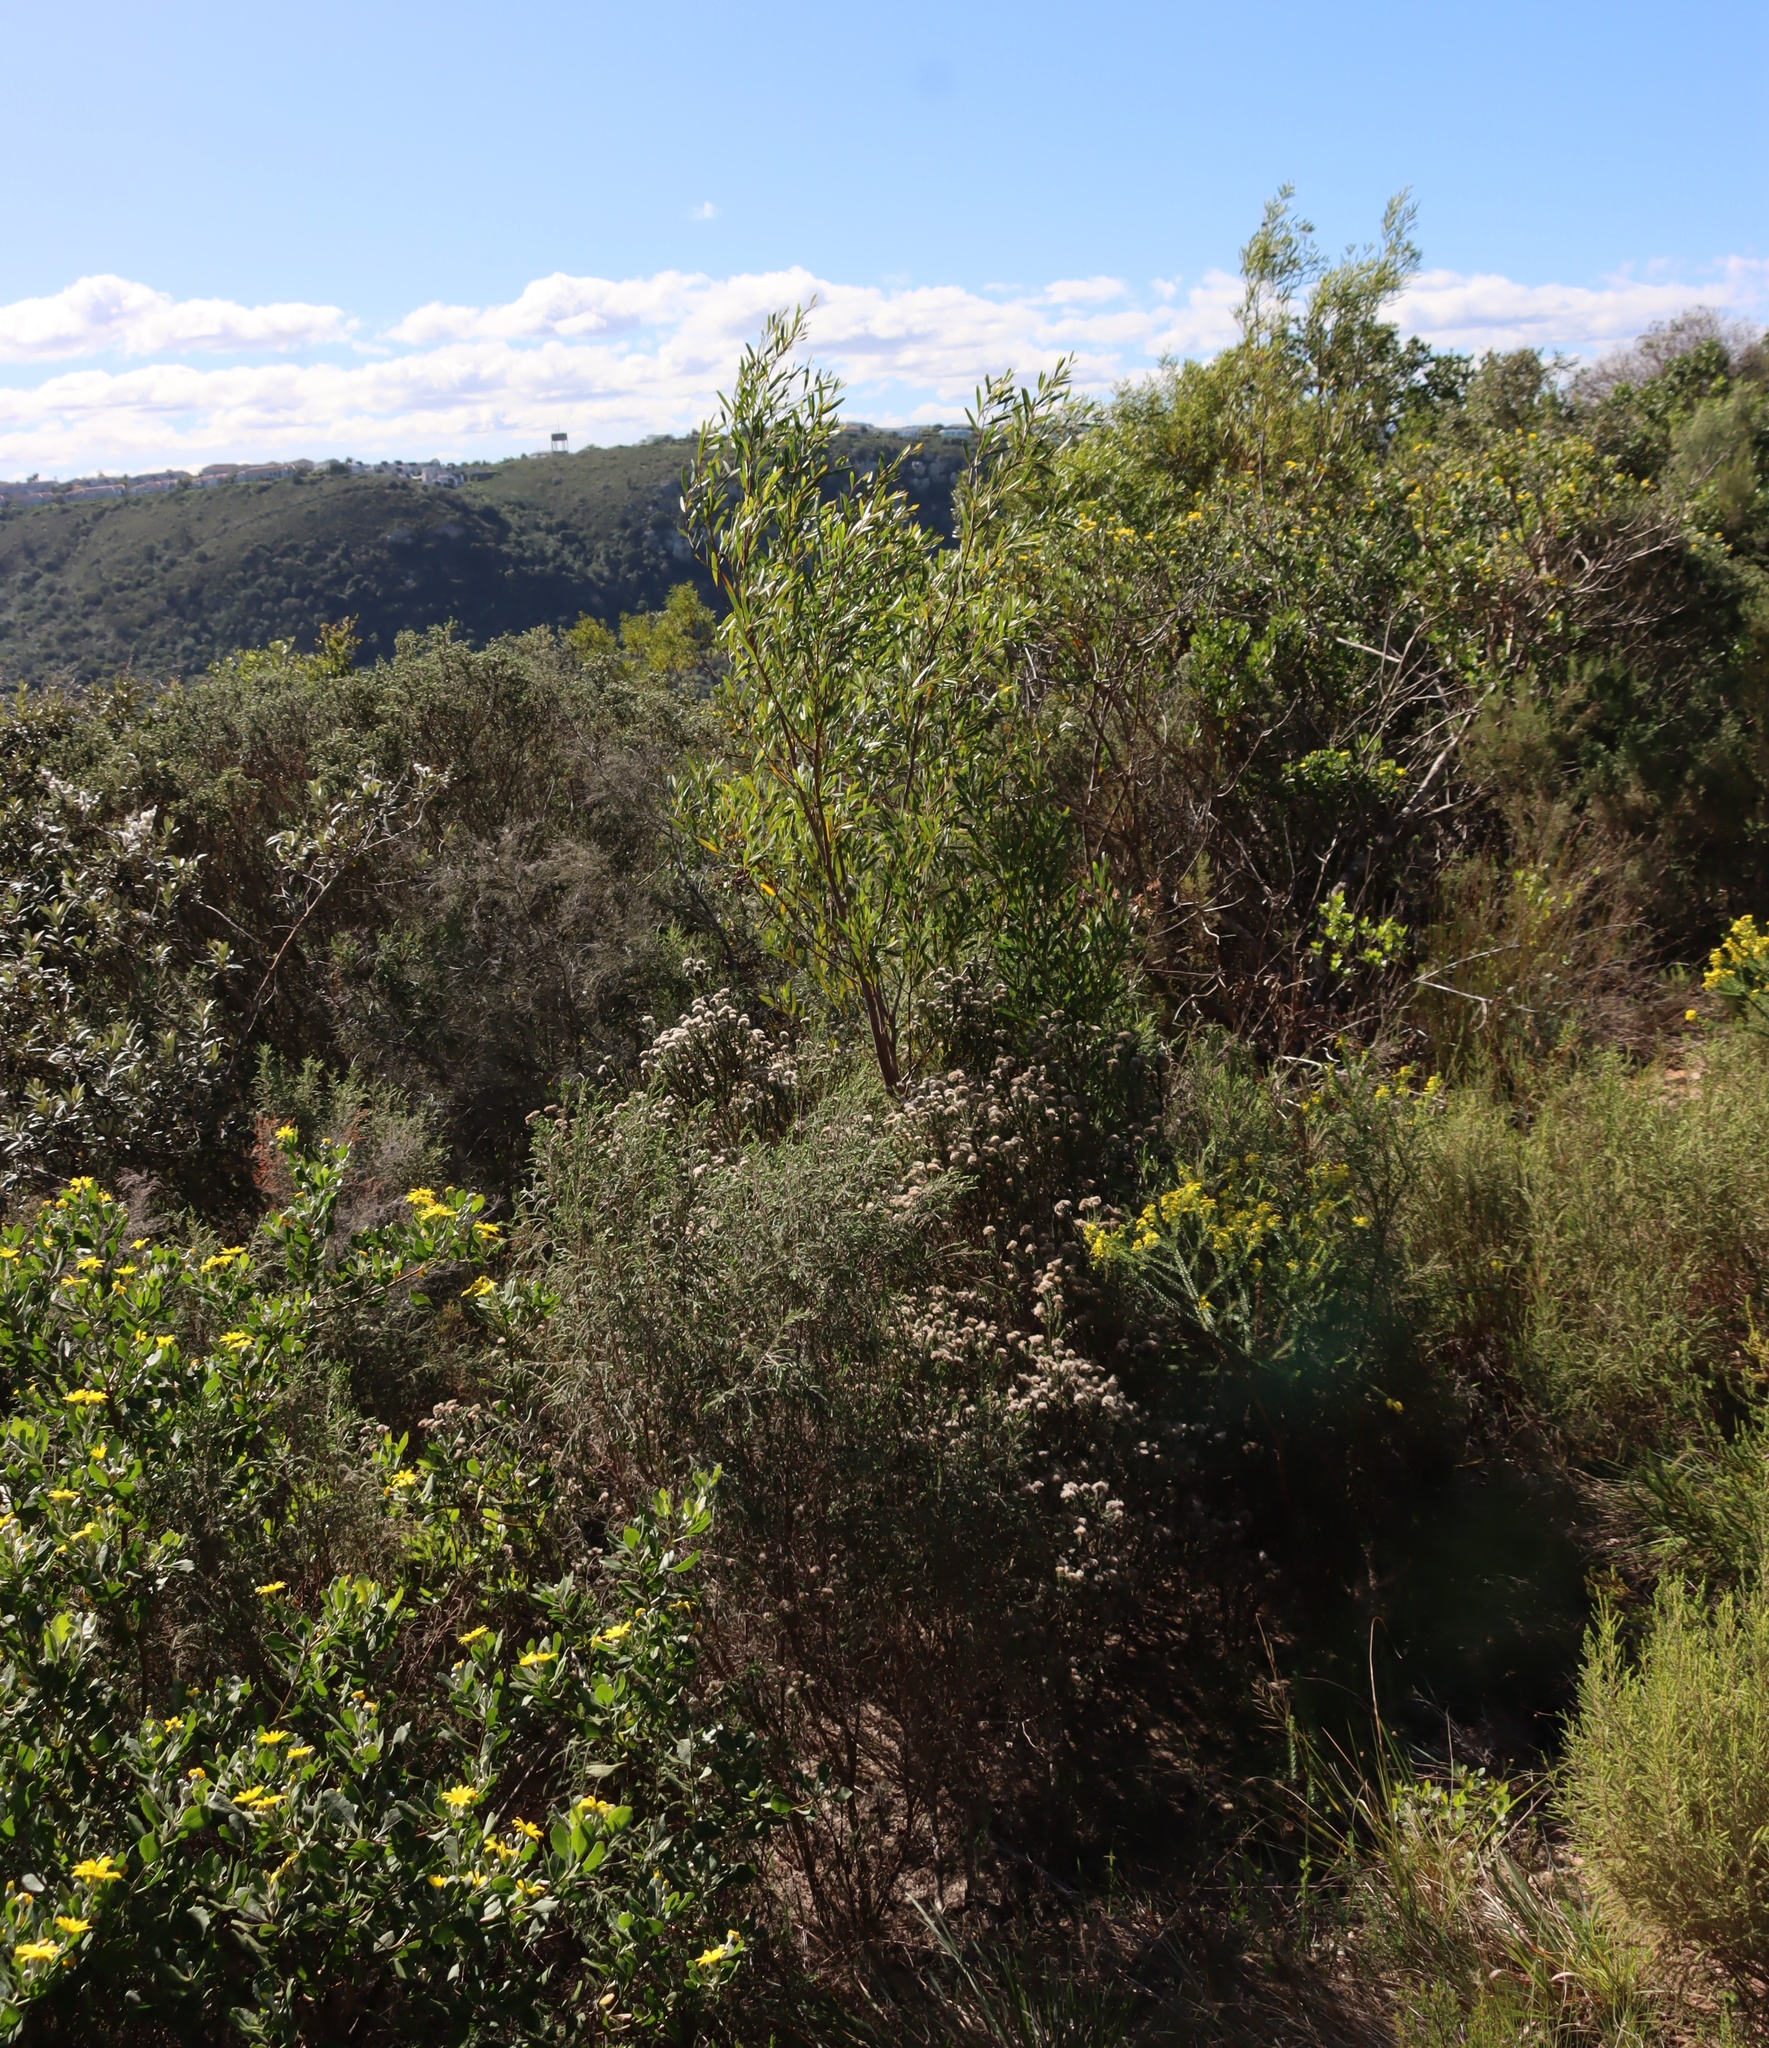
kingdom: Plantae
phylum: Tracheophyta
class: Magnoliopsida
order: Fabales
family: Fabaceae
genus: Acacia
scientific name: Acacia cyclops
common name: Coastal wattle
